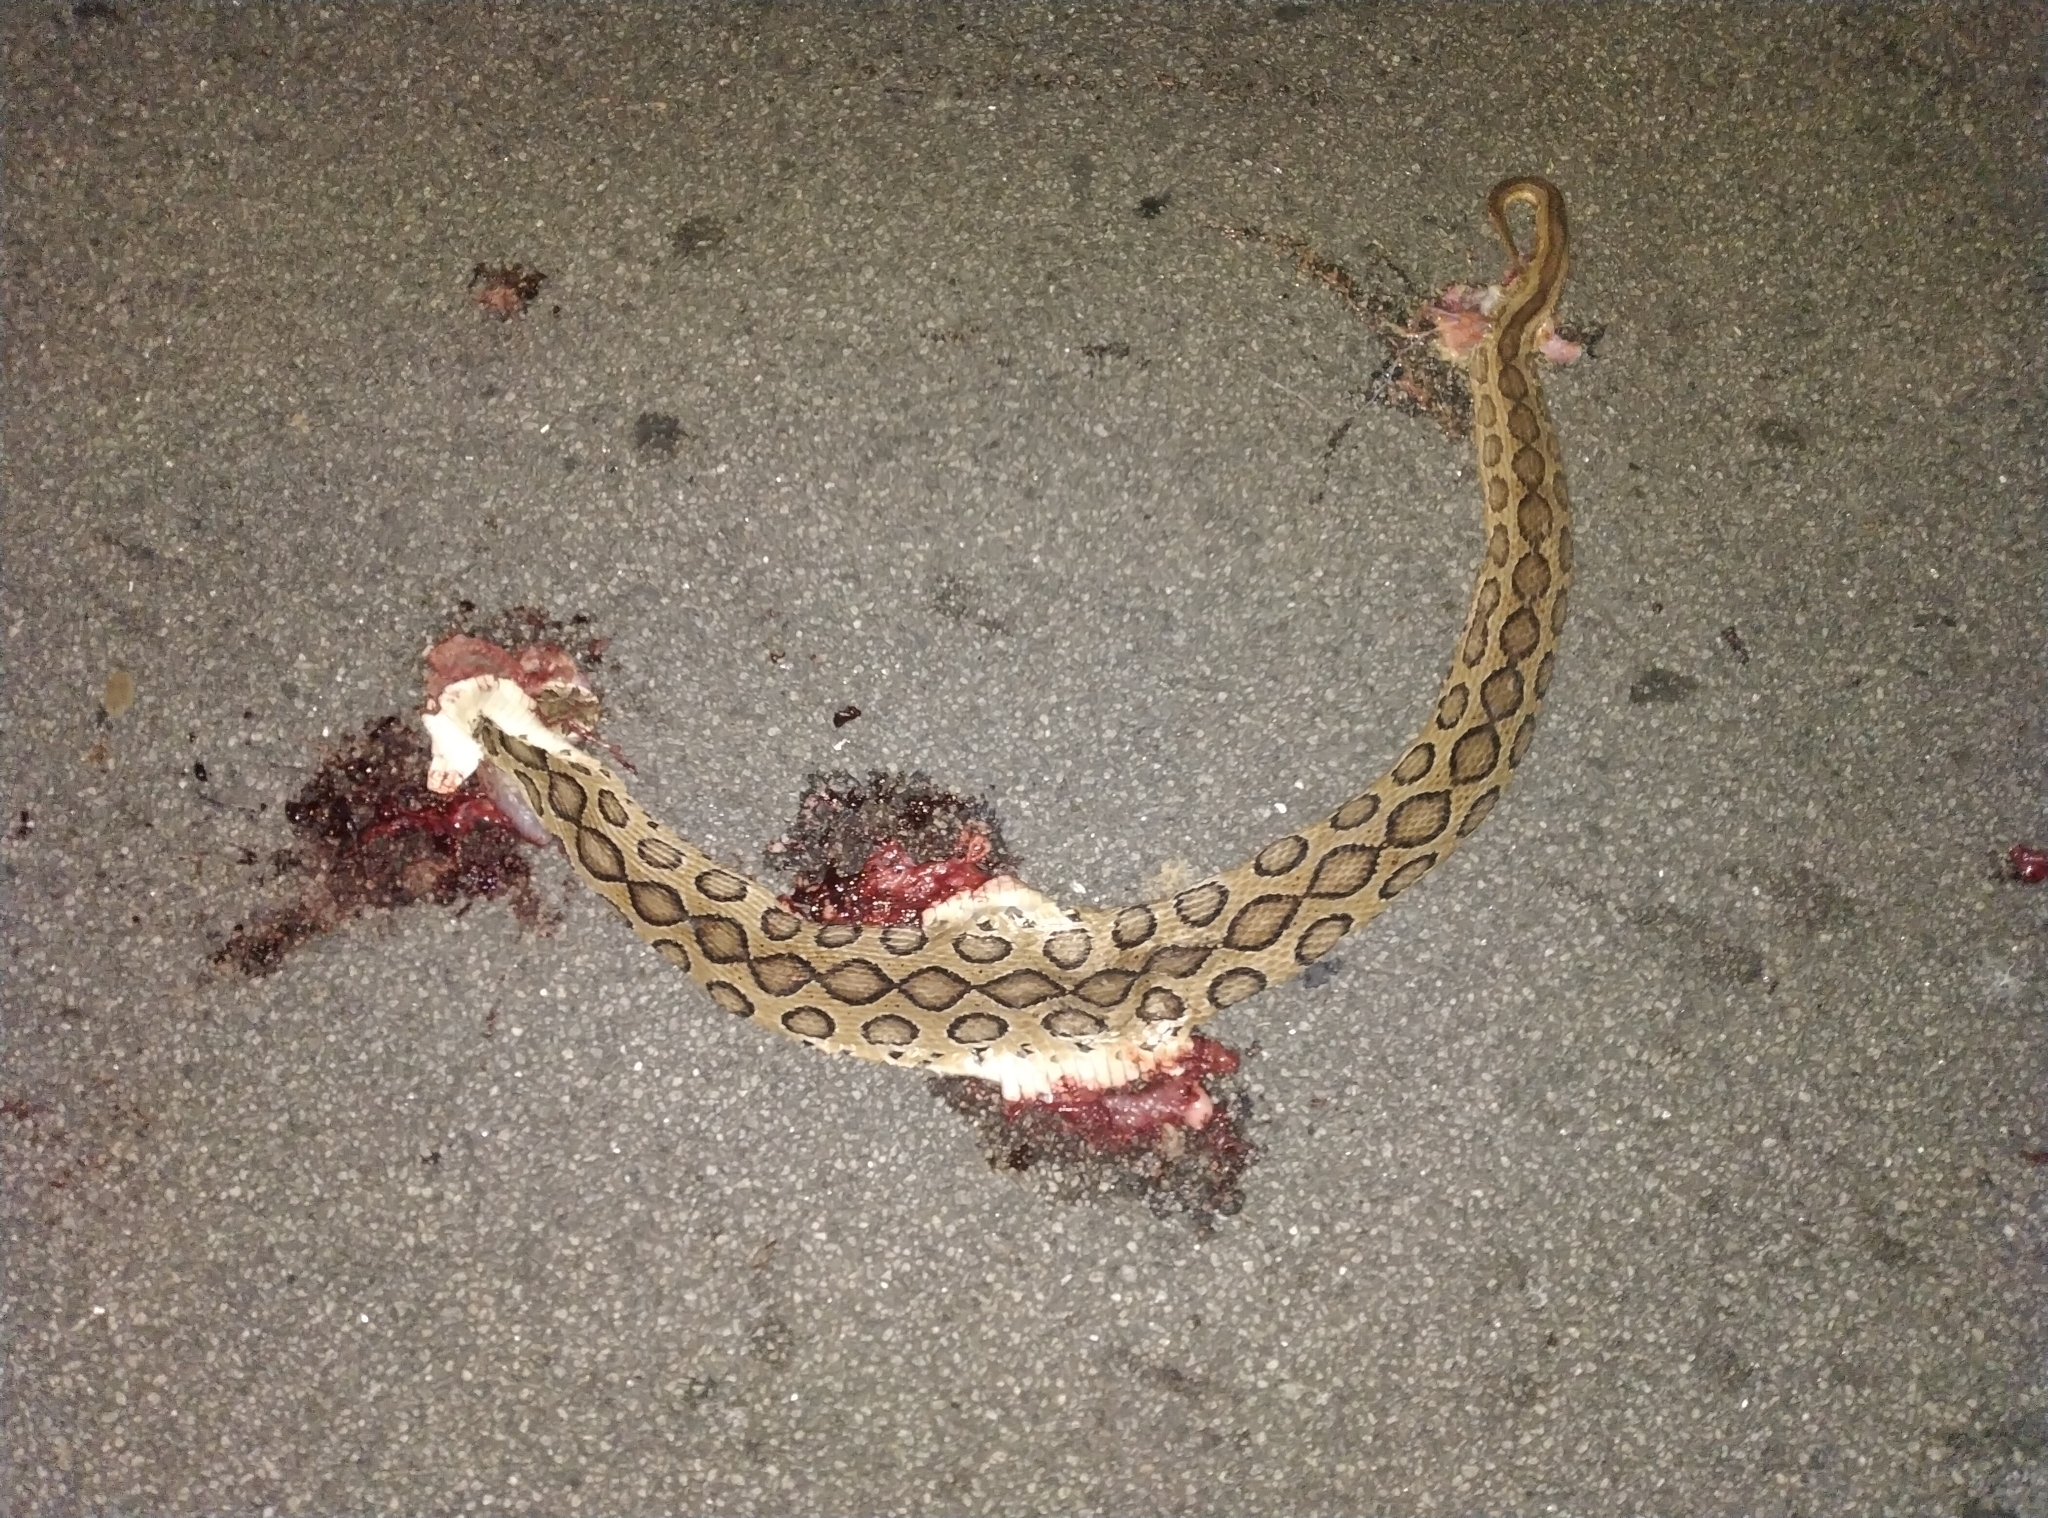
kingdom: Animalia
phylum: Chordata
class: Squamata
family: Viperidae
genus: Daboia
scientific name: Daboia russelii
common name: Western russel’s viper
